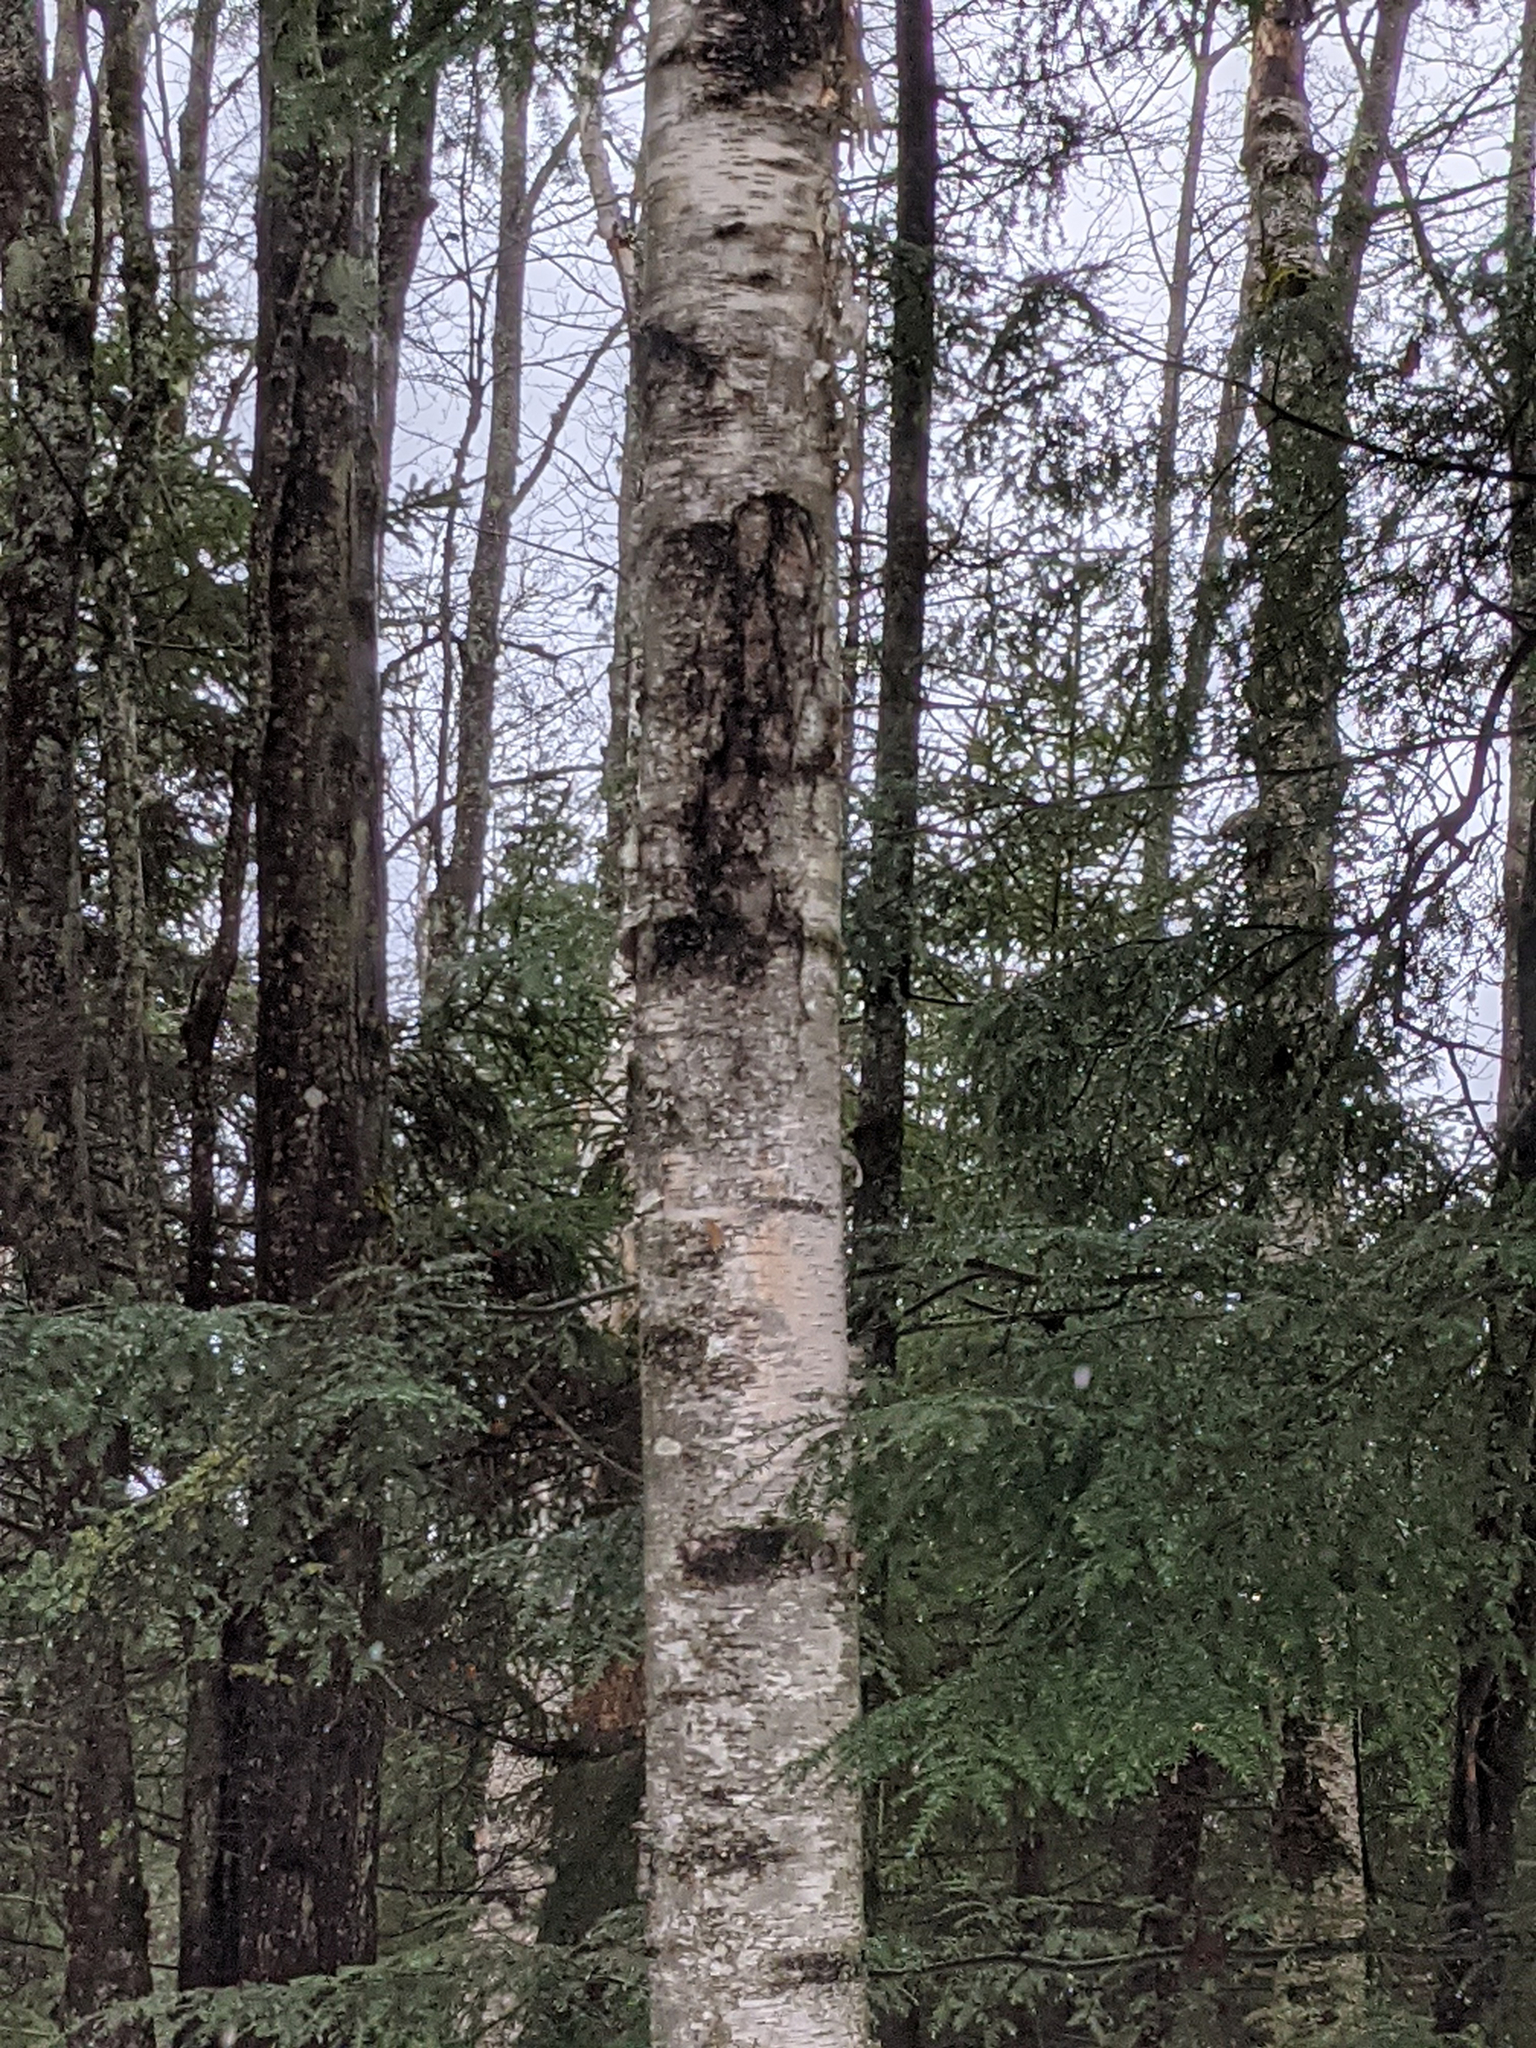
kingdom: Plantae
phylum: Tracheophyta
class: Magnoliopsida
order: Fagales
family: Betulaceae
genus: Betula
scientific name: Betula papyrifera
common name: Paper birch
